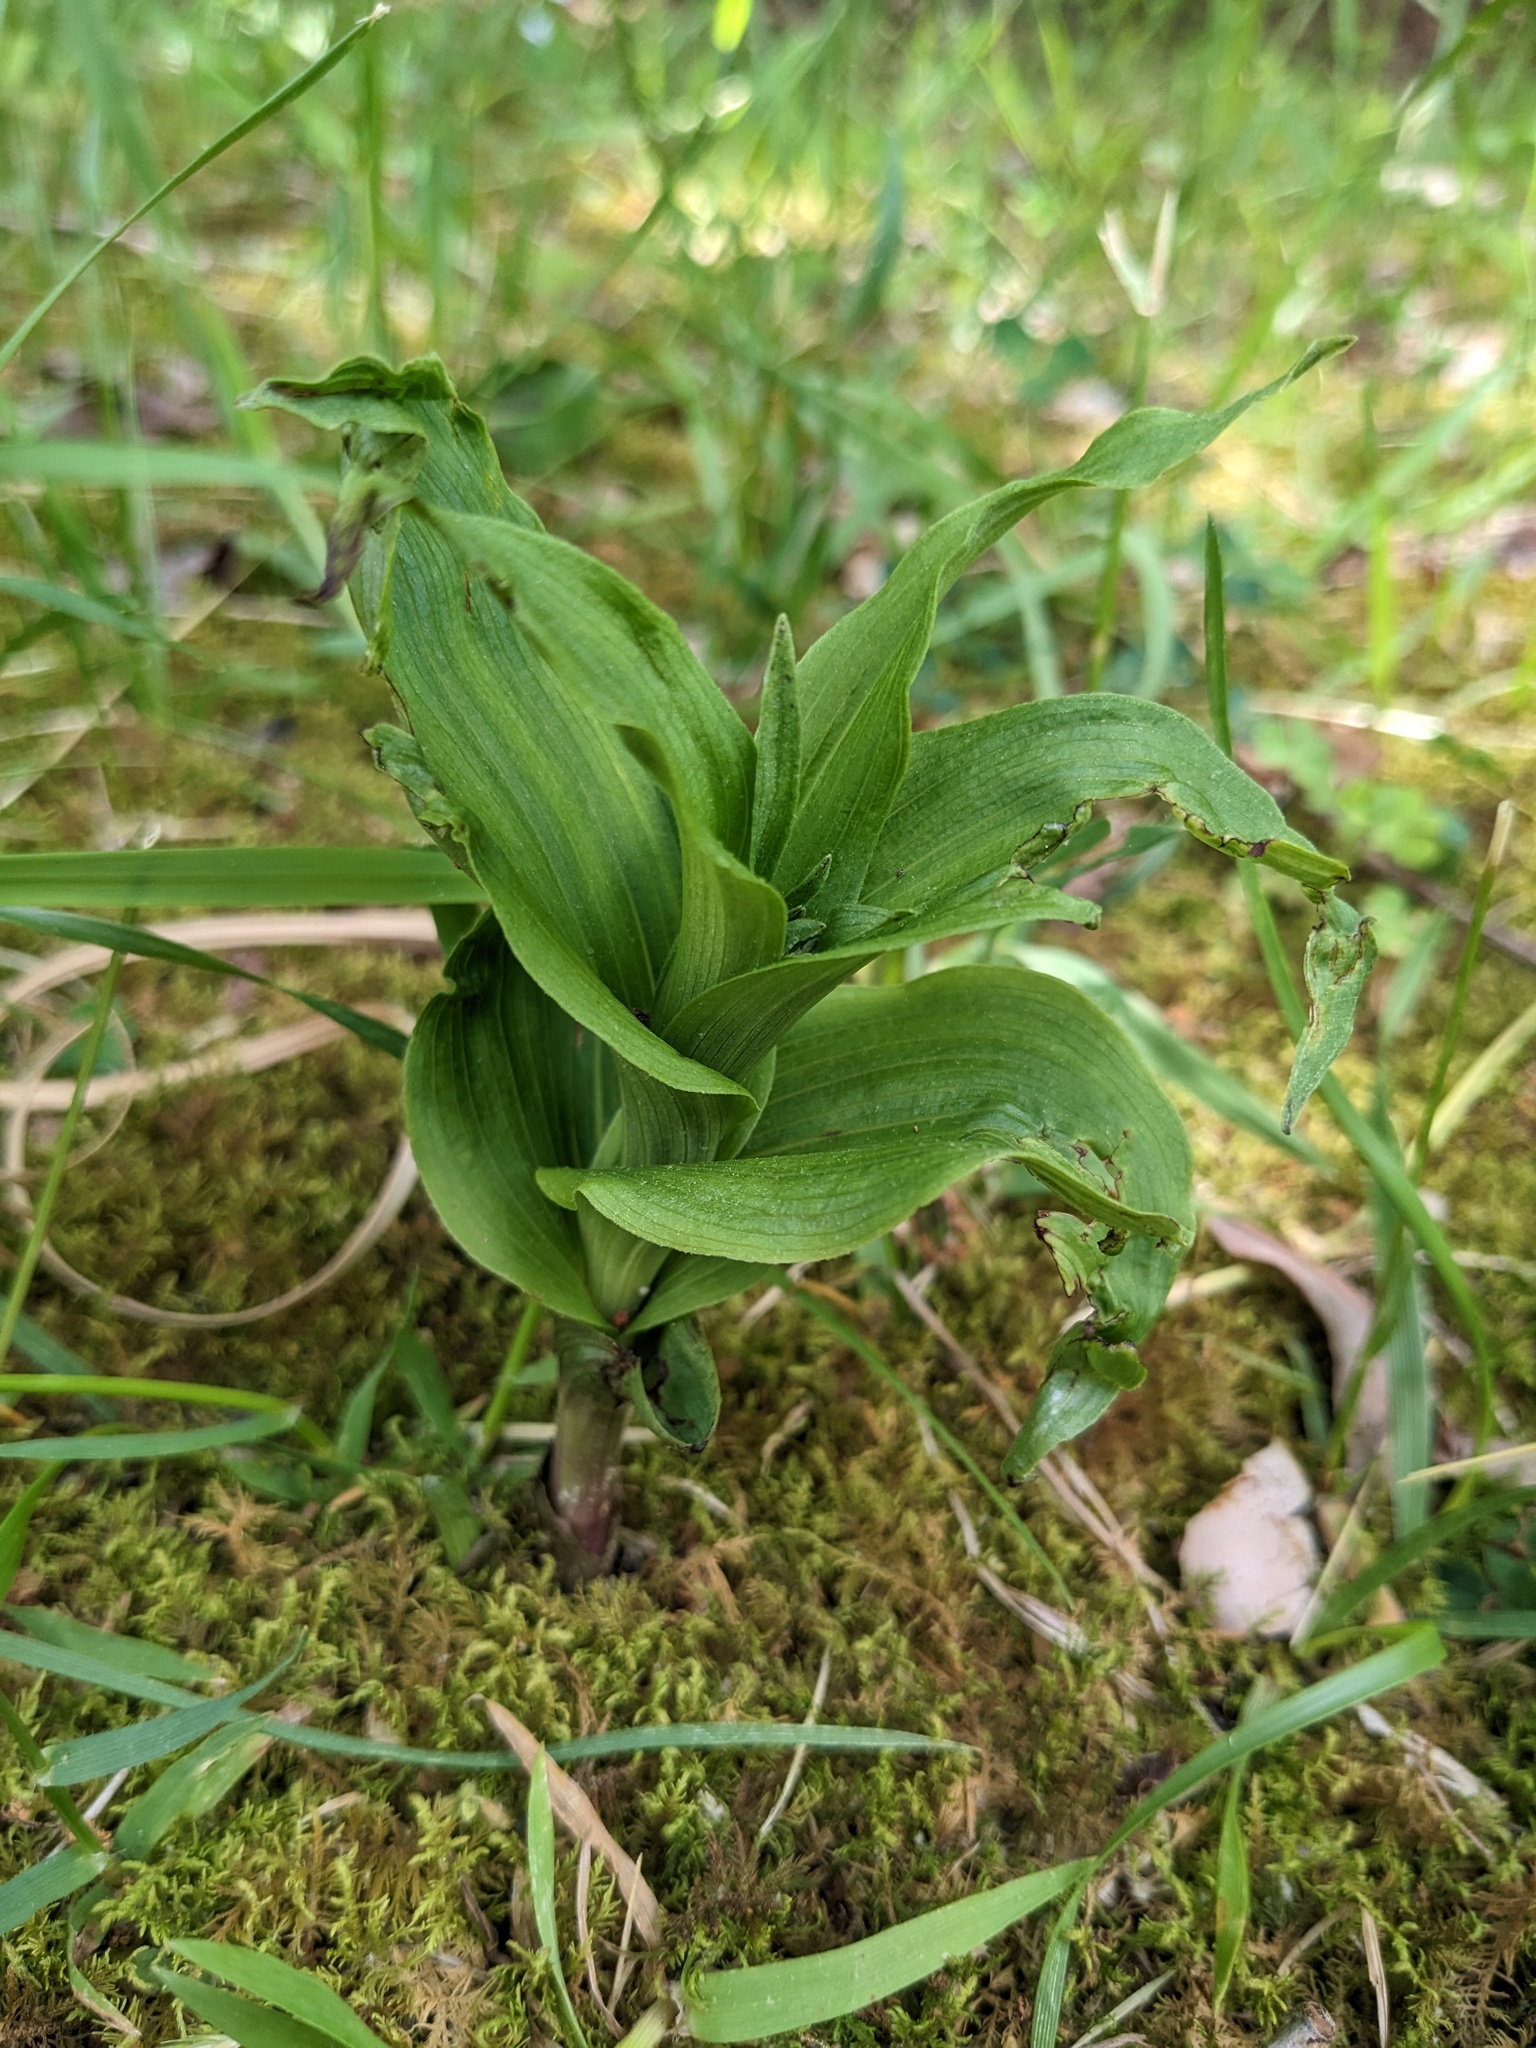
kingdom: Plantae
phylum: Tracheophyta
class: Liliopsida
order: Asparagales
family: Orchidaceae
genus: Epipactis
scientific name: Epipactis helleborine
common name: Broad-leaved helleborine
